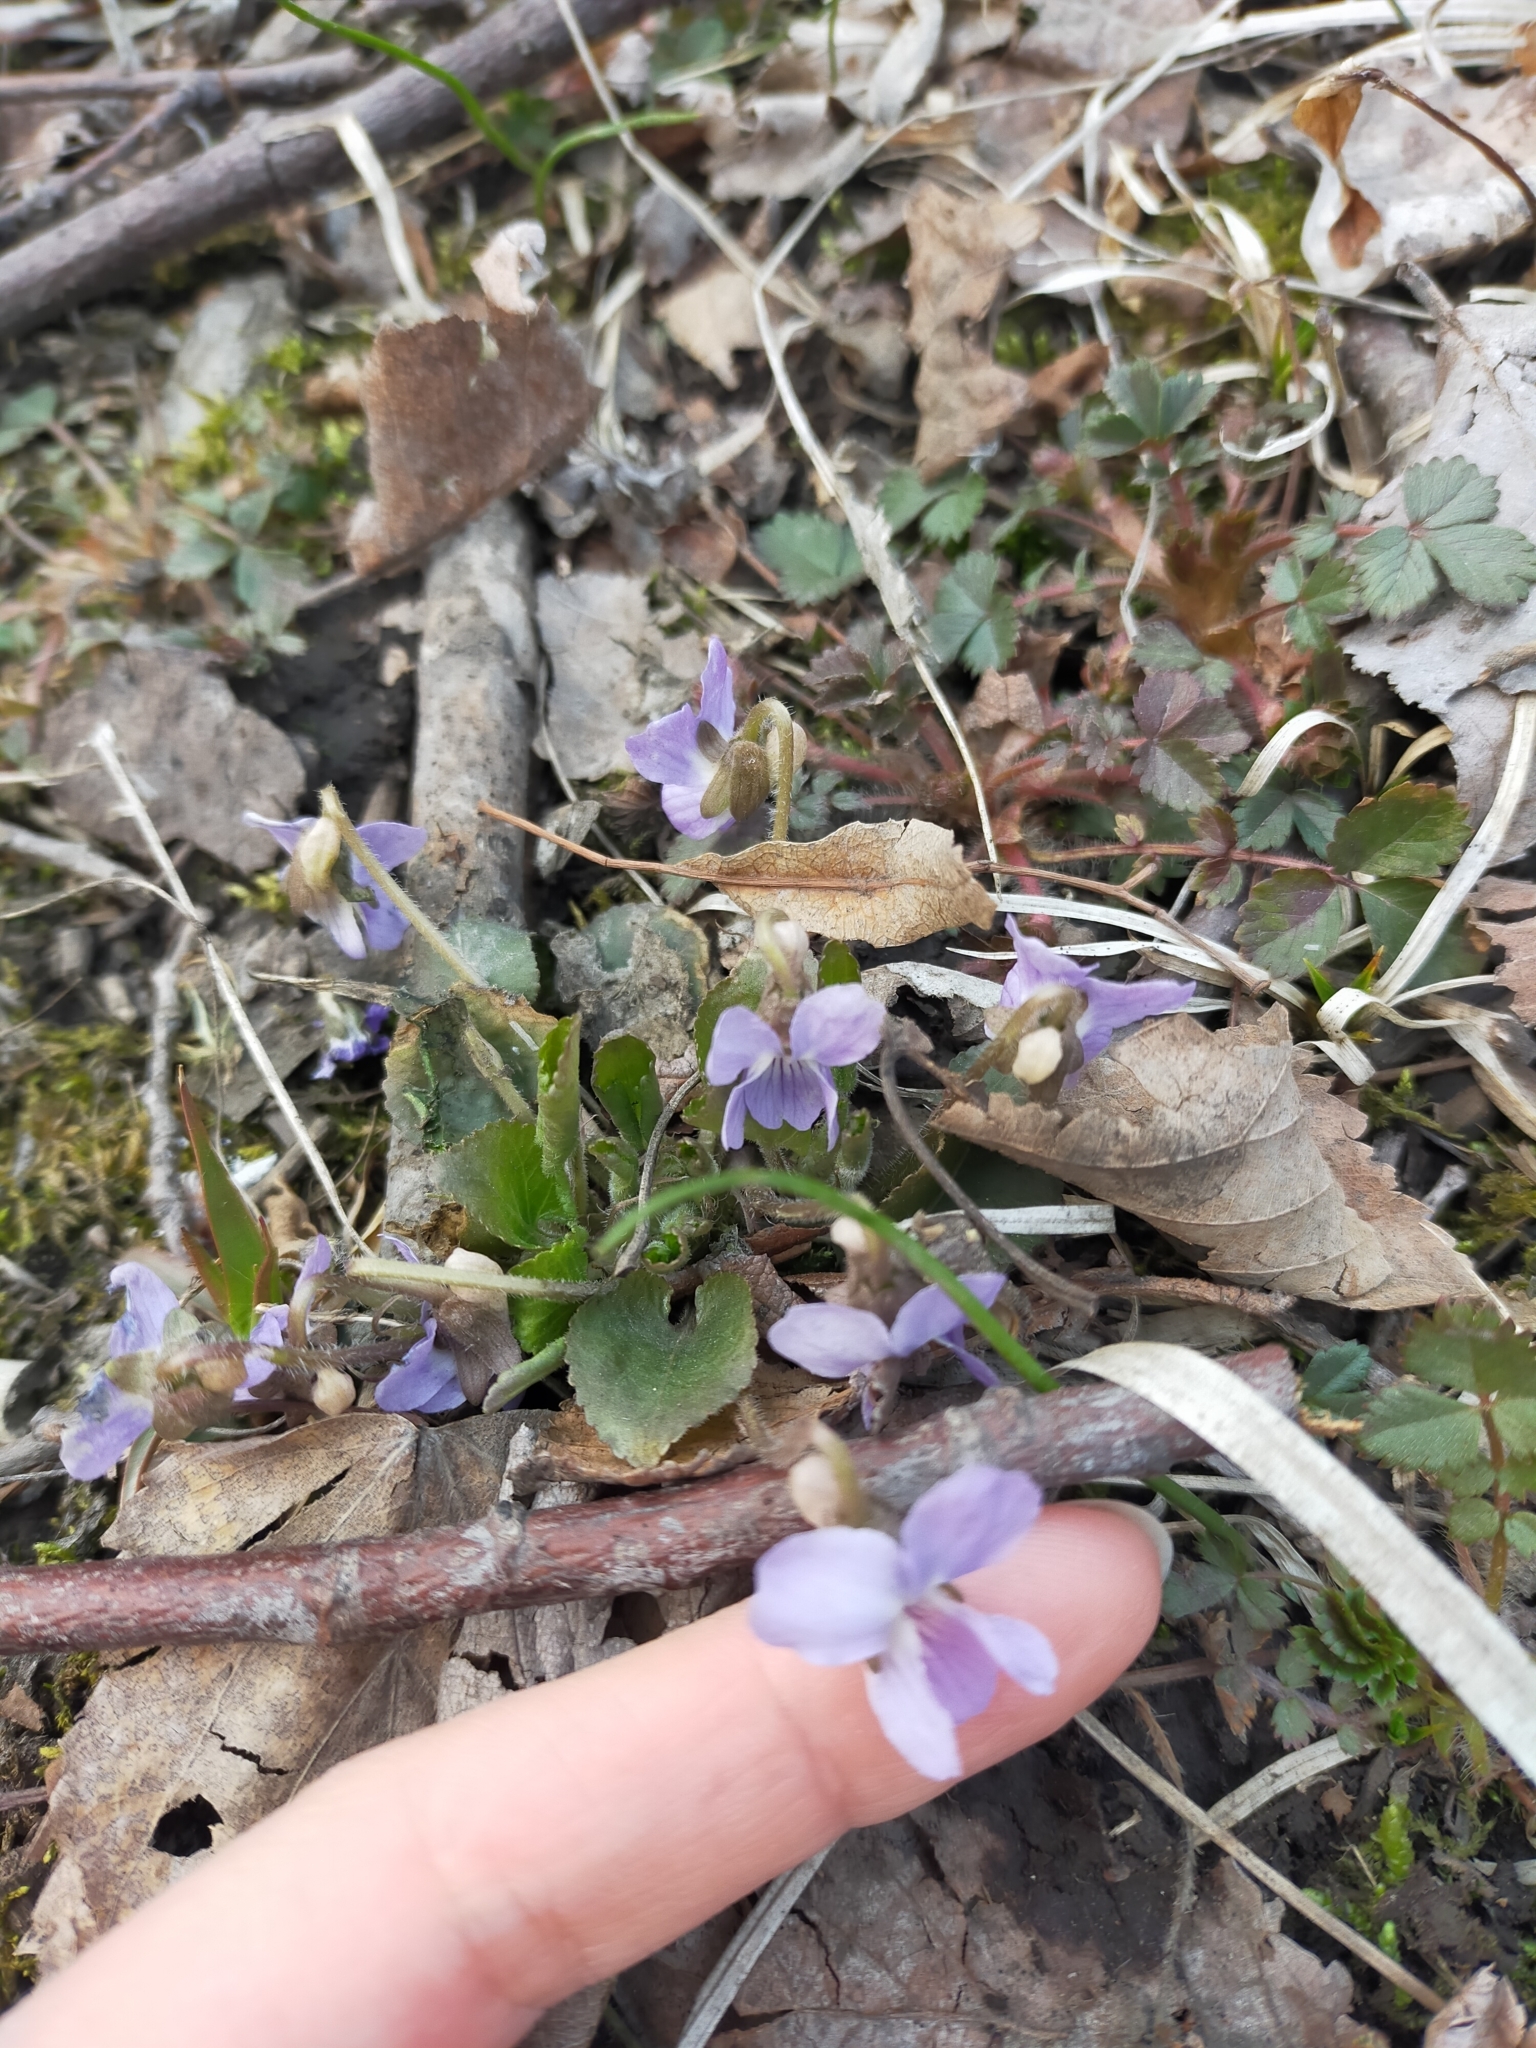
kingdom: Plantae
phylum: Tracheophyta
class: Magnoliopsida
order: Malpighiales
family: Violaceae
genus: Viola
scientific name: Viola selkirkii
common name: Selkirk's violet
